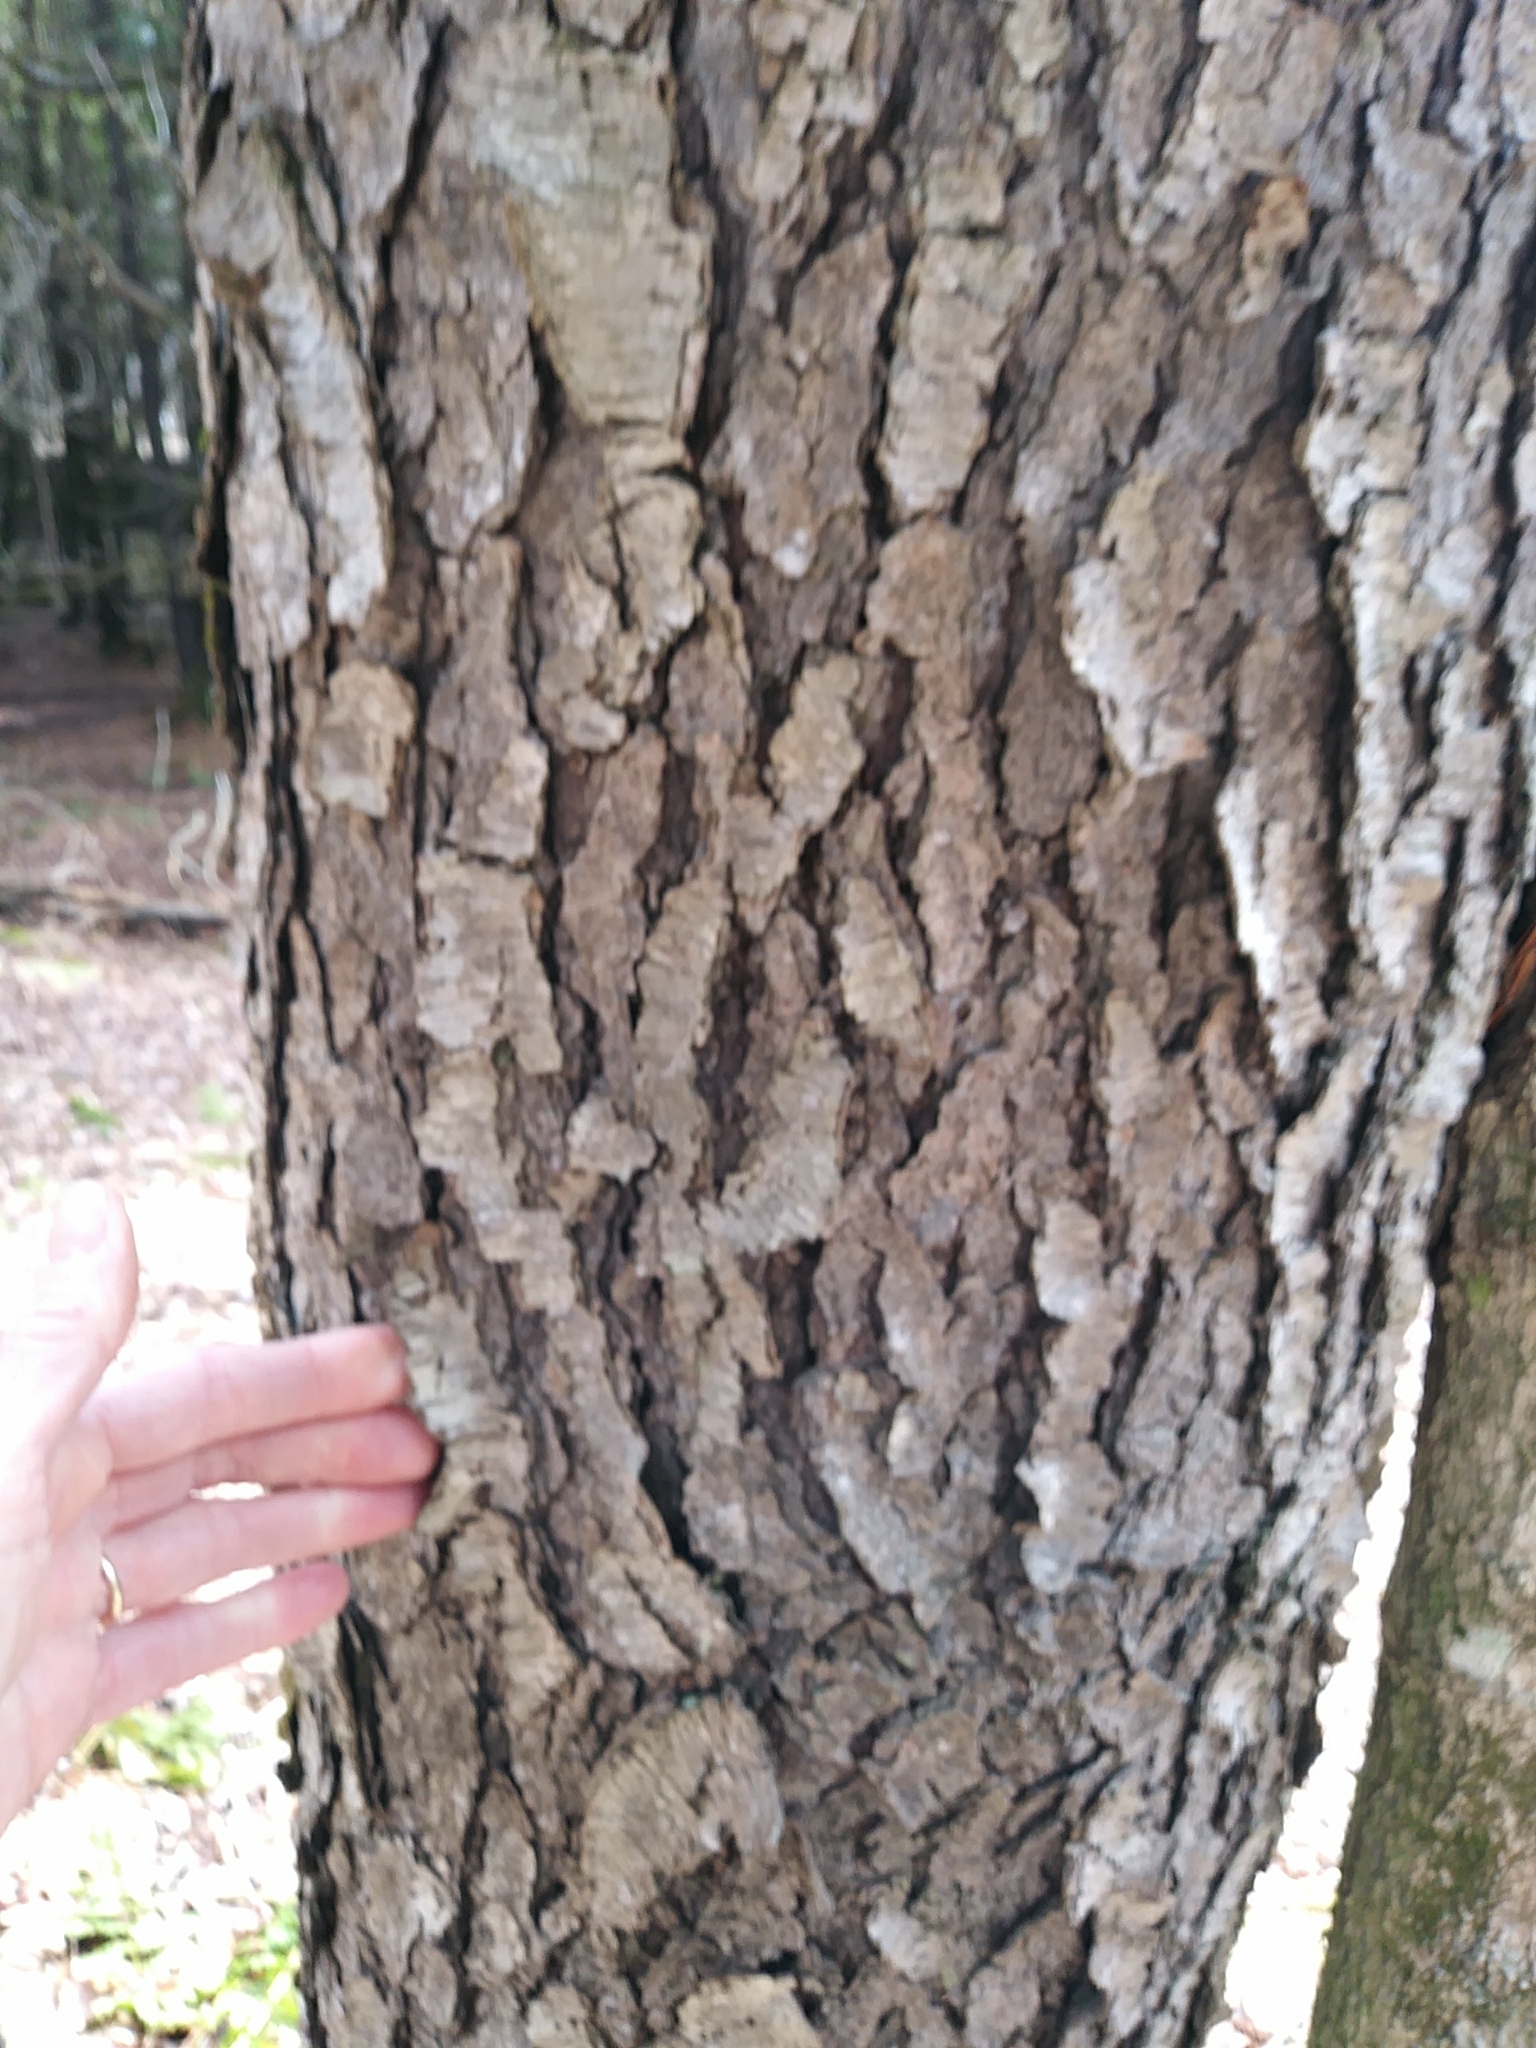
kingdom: Plantae
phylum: Tracheophyta
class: Magnoliopsida
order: Rosales
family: Rosaceae
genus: Prunus
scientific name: Prunus serotina
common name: Black cherry
